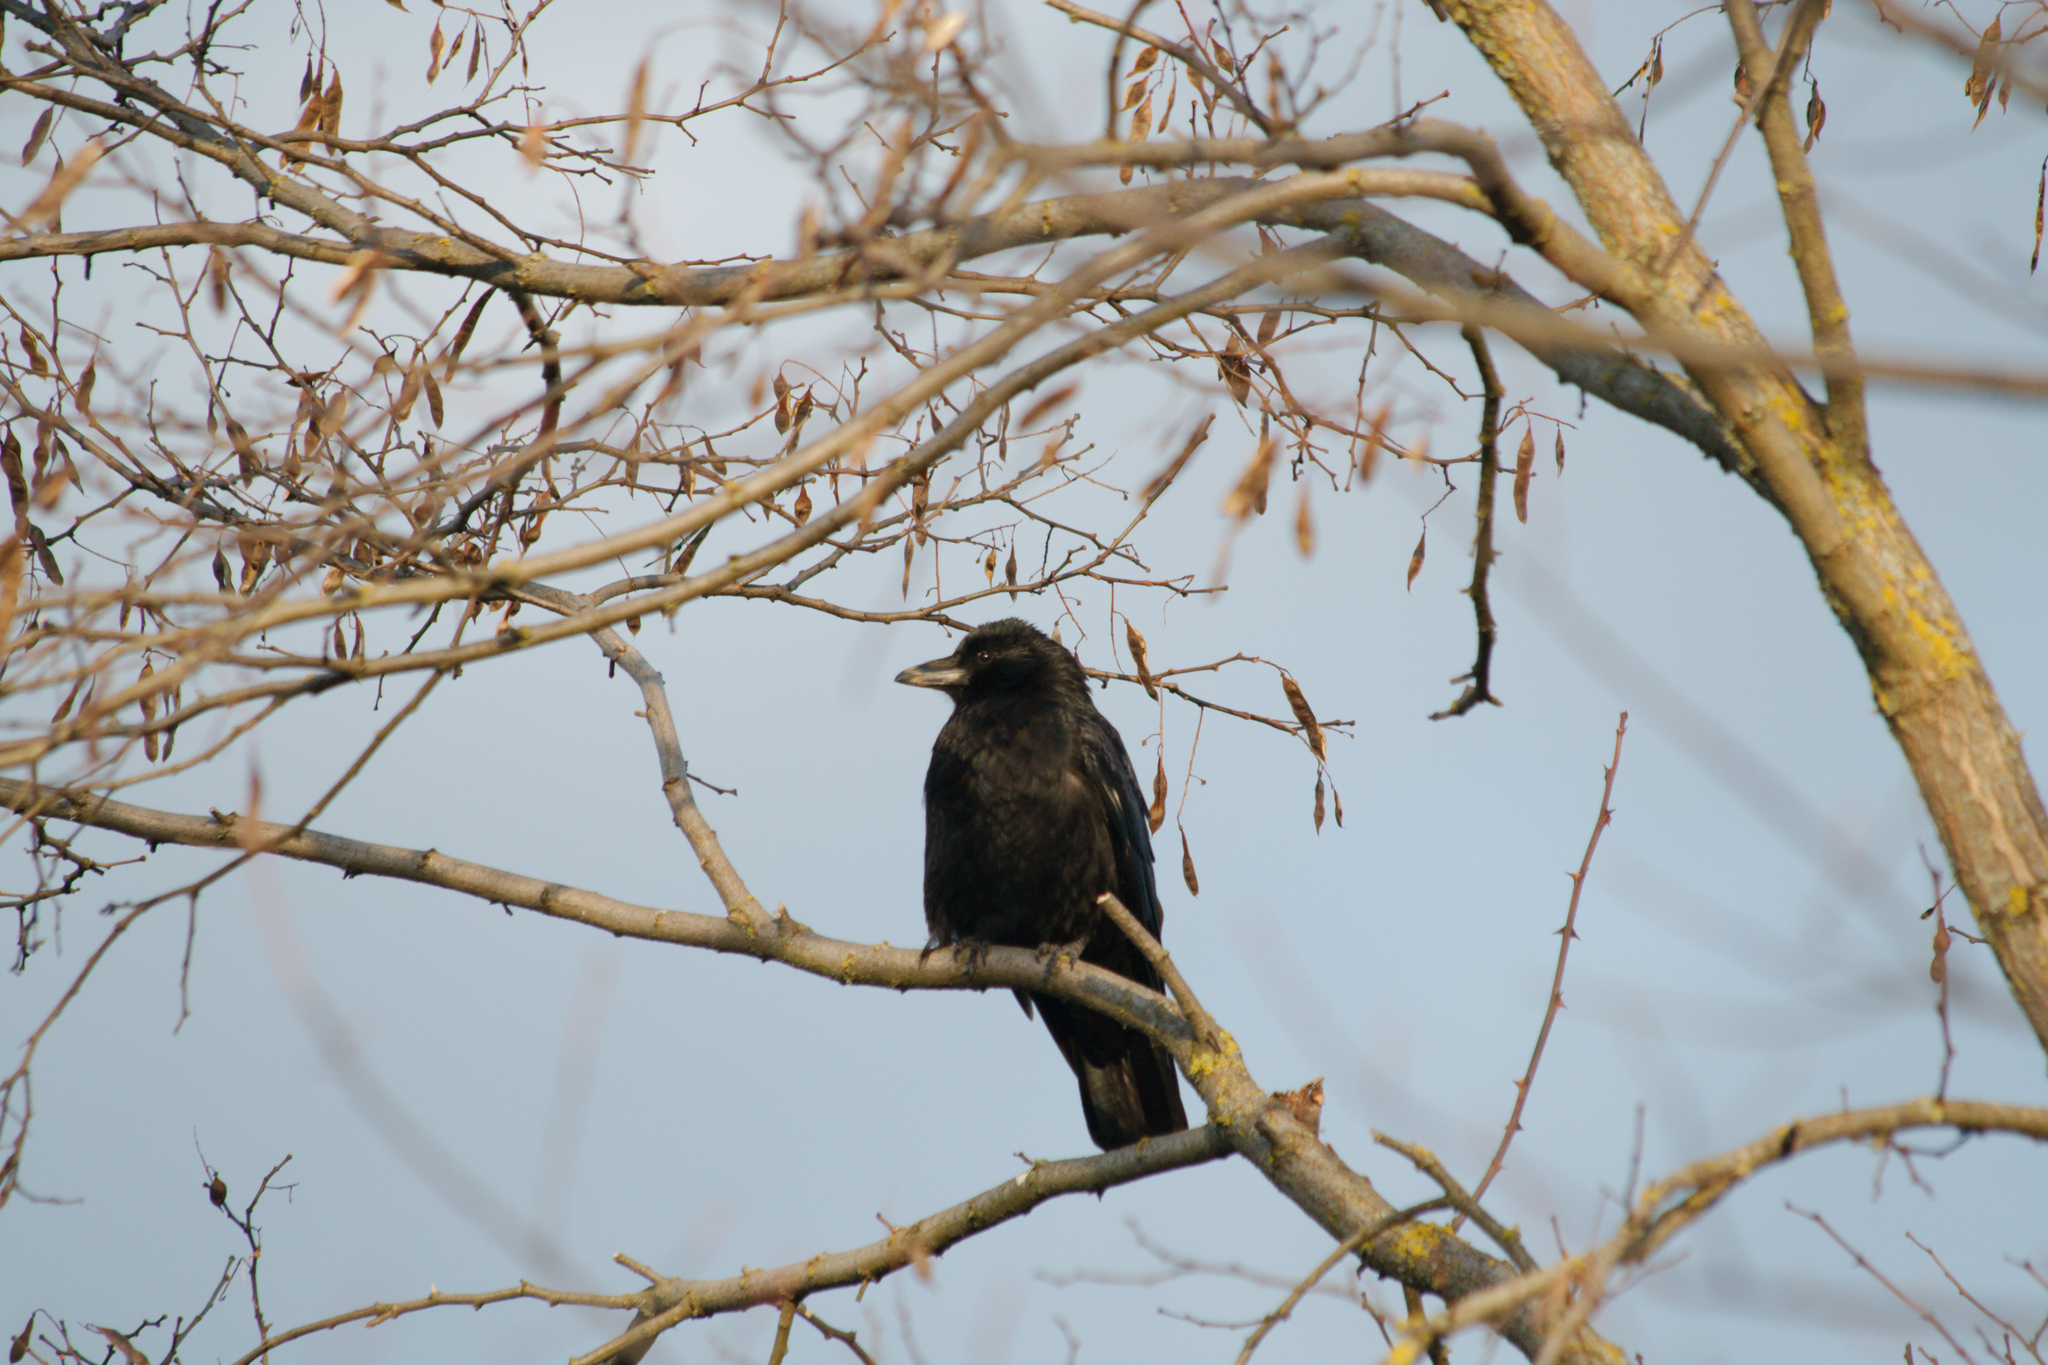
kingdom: Animalia
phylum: Chordata
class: Aves
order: Passeriformes
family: Corvidae
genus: Corvus
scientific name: Corvus corone
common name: Carrion crow
